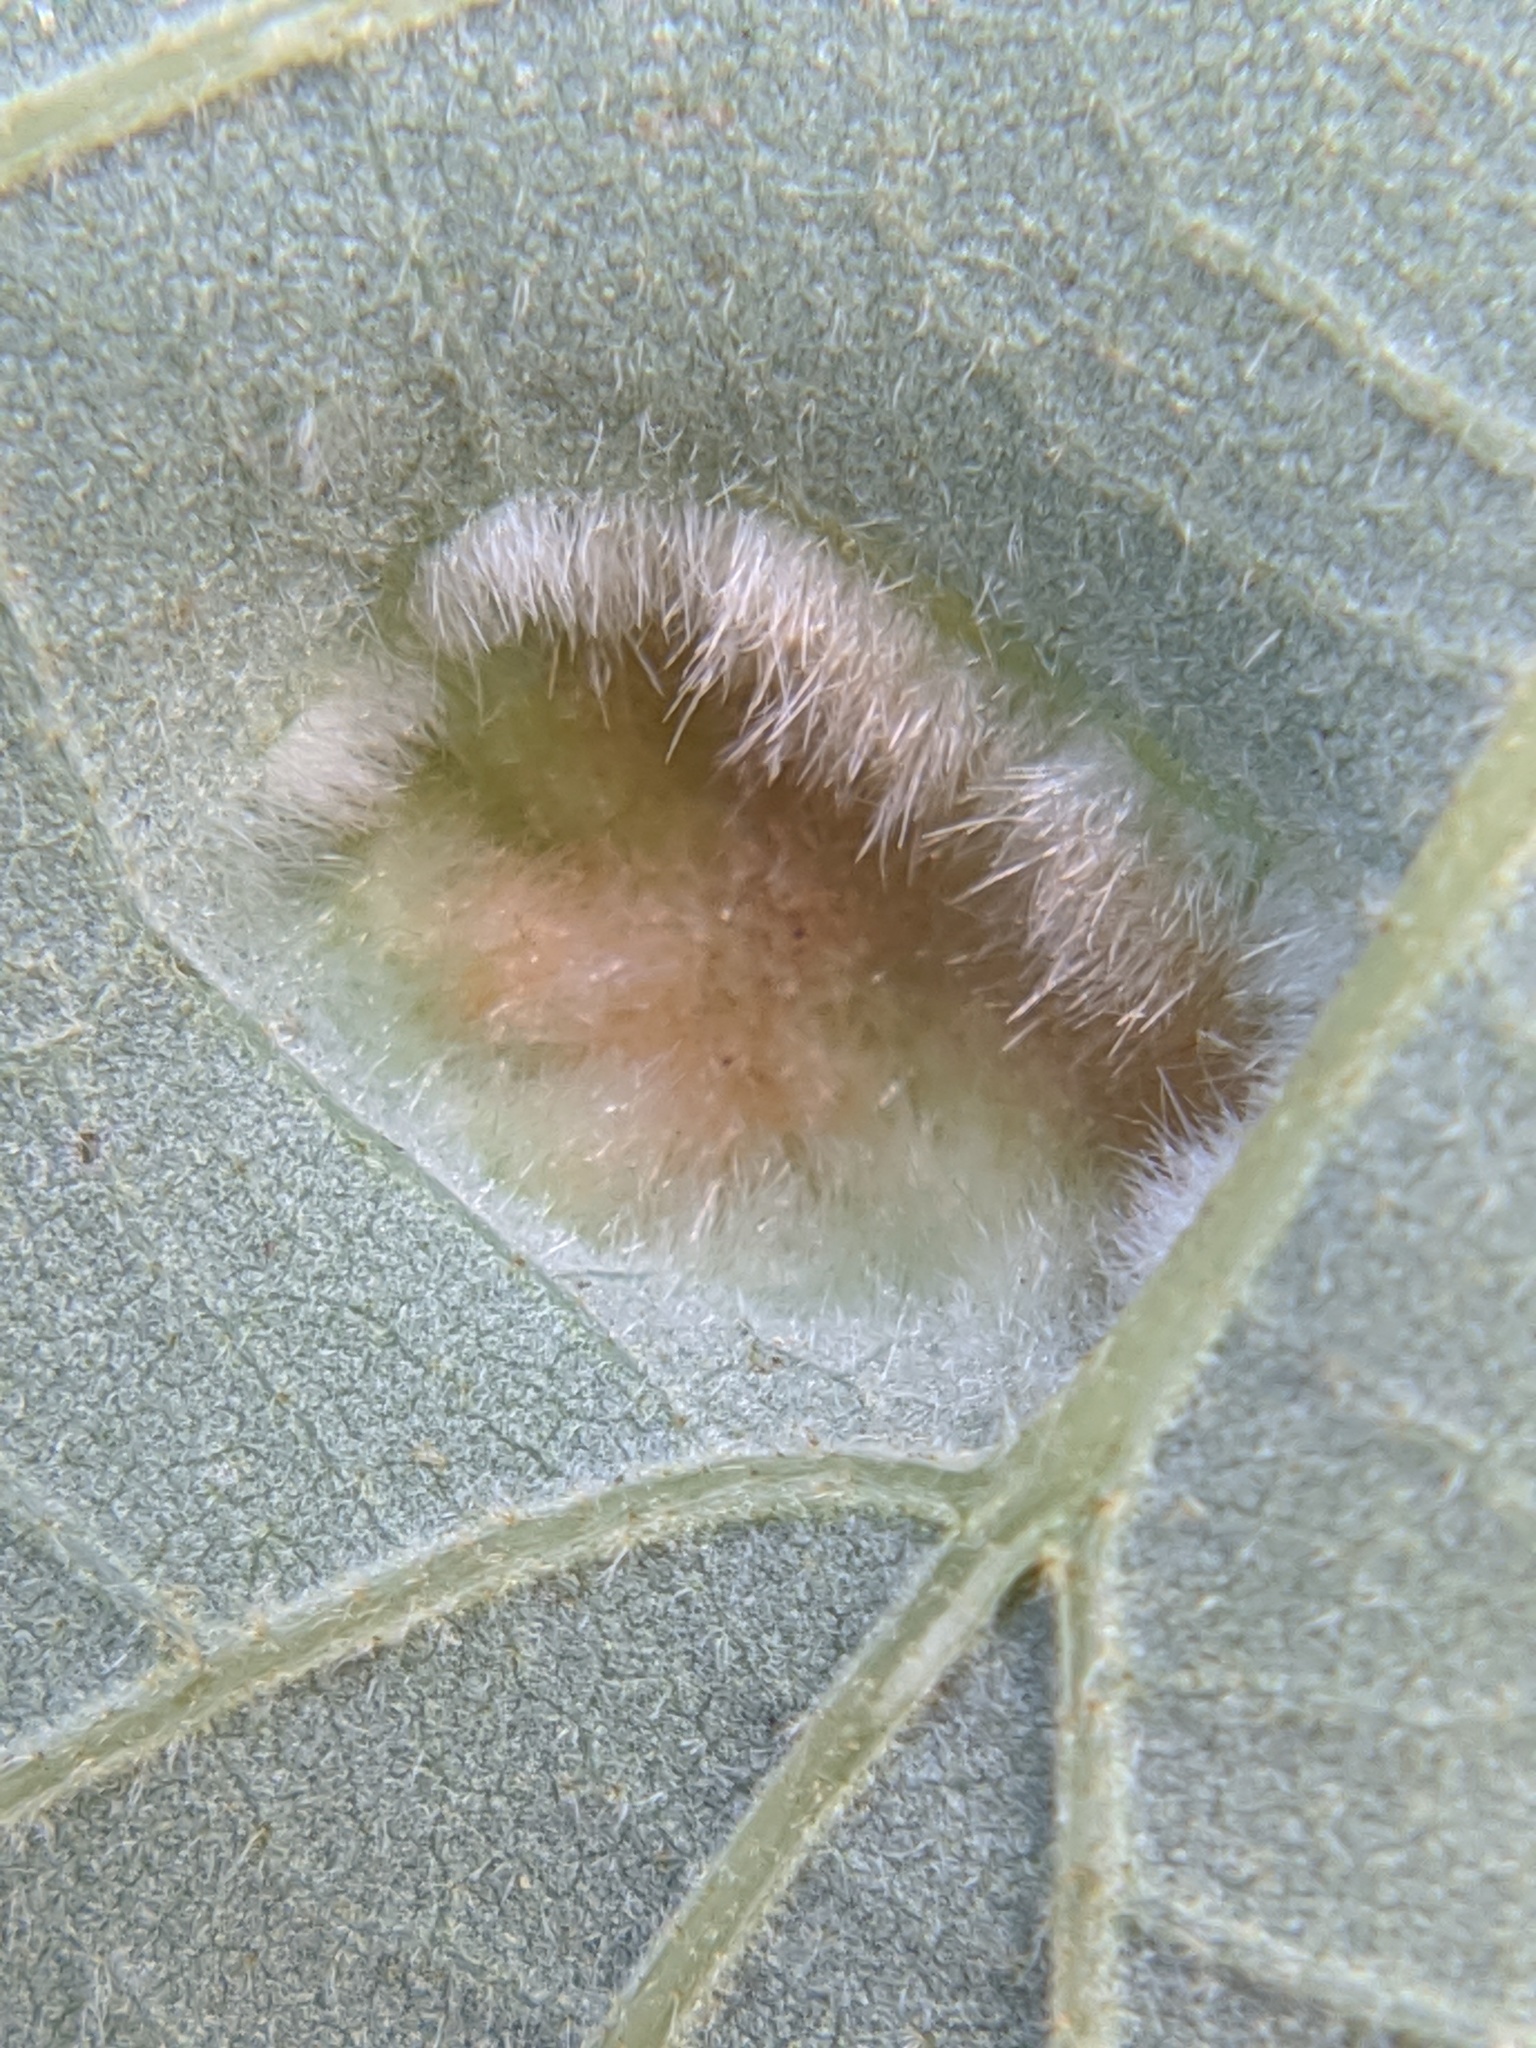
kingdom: Animalia
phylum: Arthropoda
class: Arachnida
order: Trombidiformes
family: Eriophyidae
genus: Aceria
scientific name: Aceria quercina
